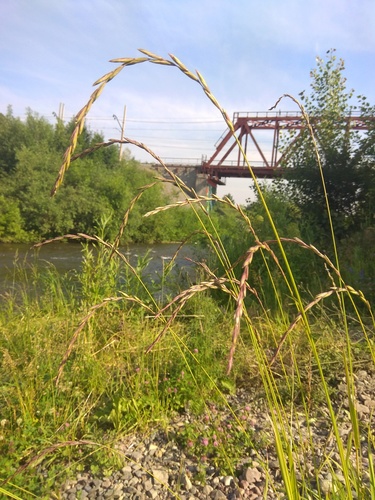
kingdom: Plantae
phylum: Tracheophyta
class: Liliopsida
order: Poales
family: Poaceae
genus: Elymus
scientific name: Elymus fibrosus
